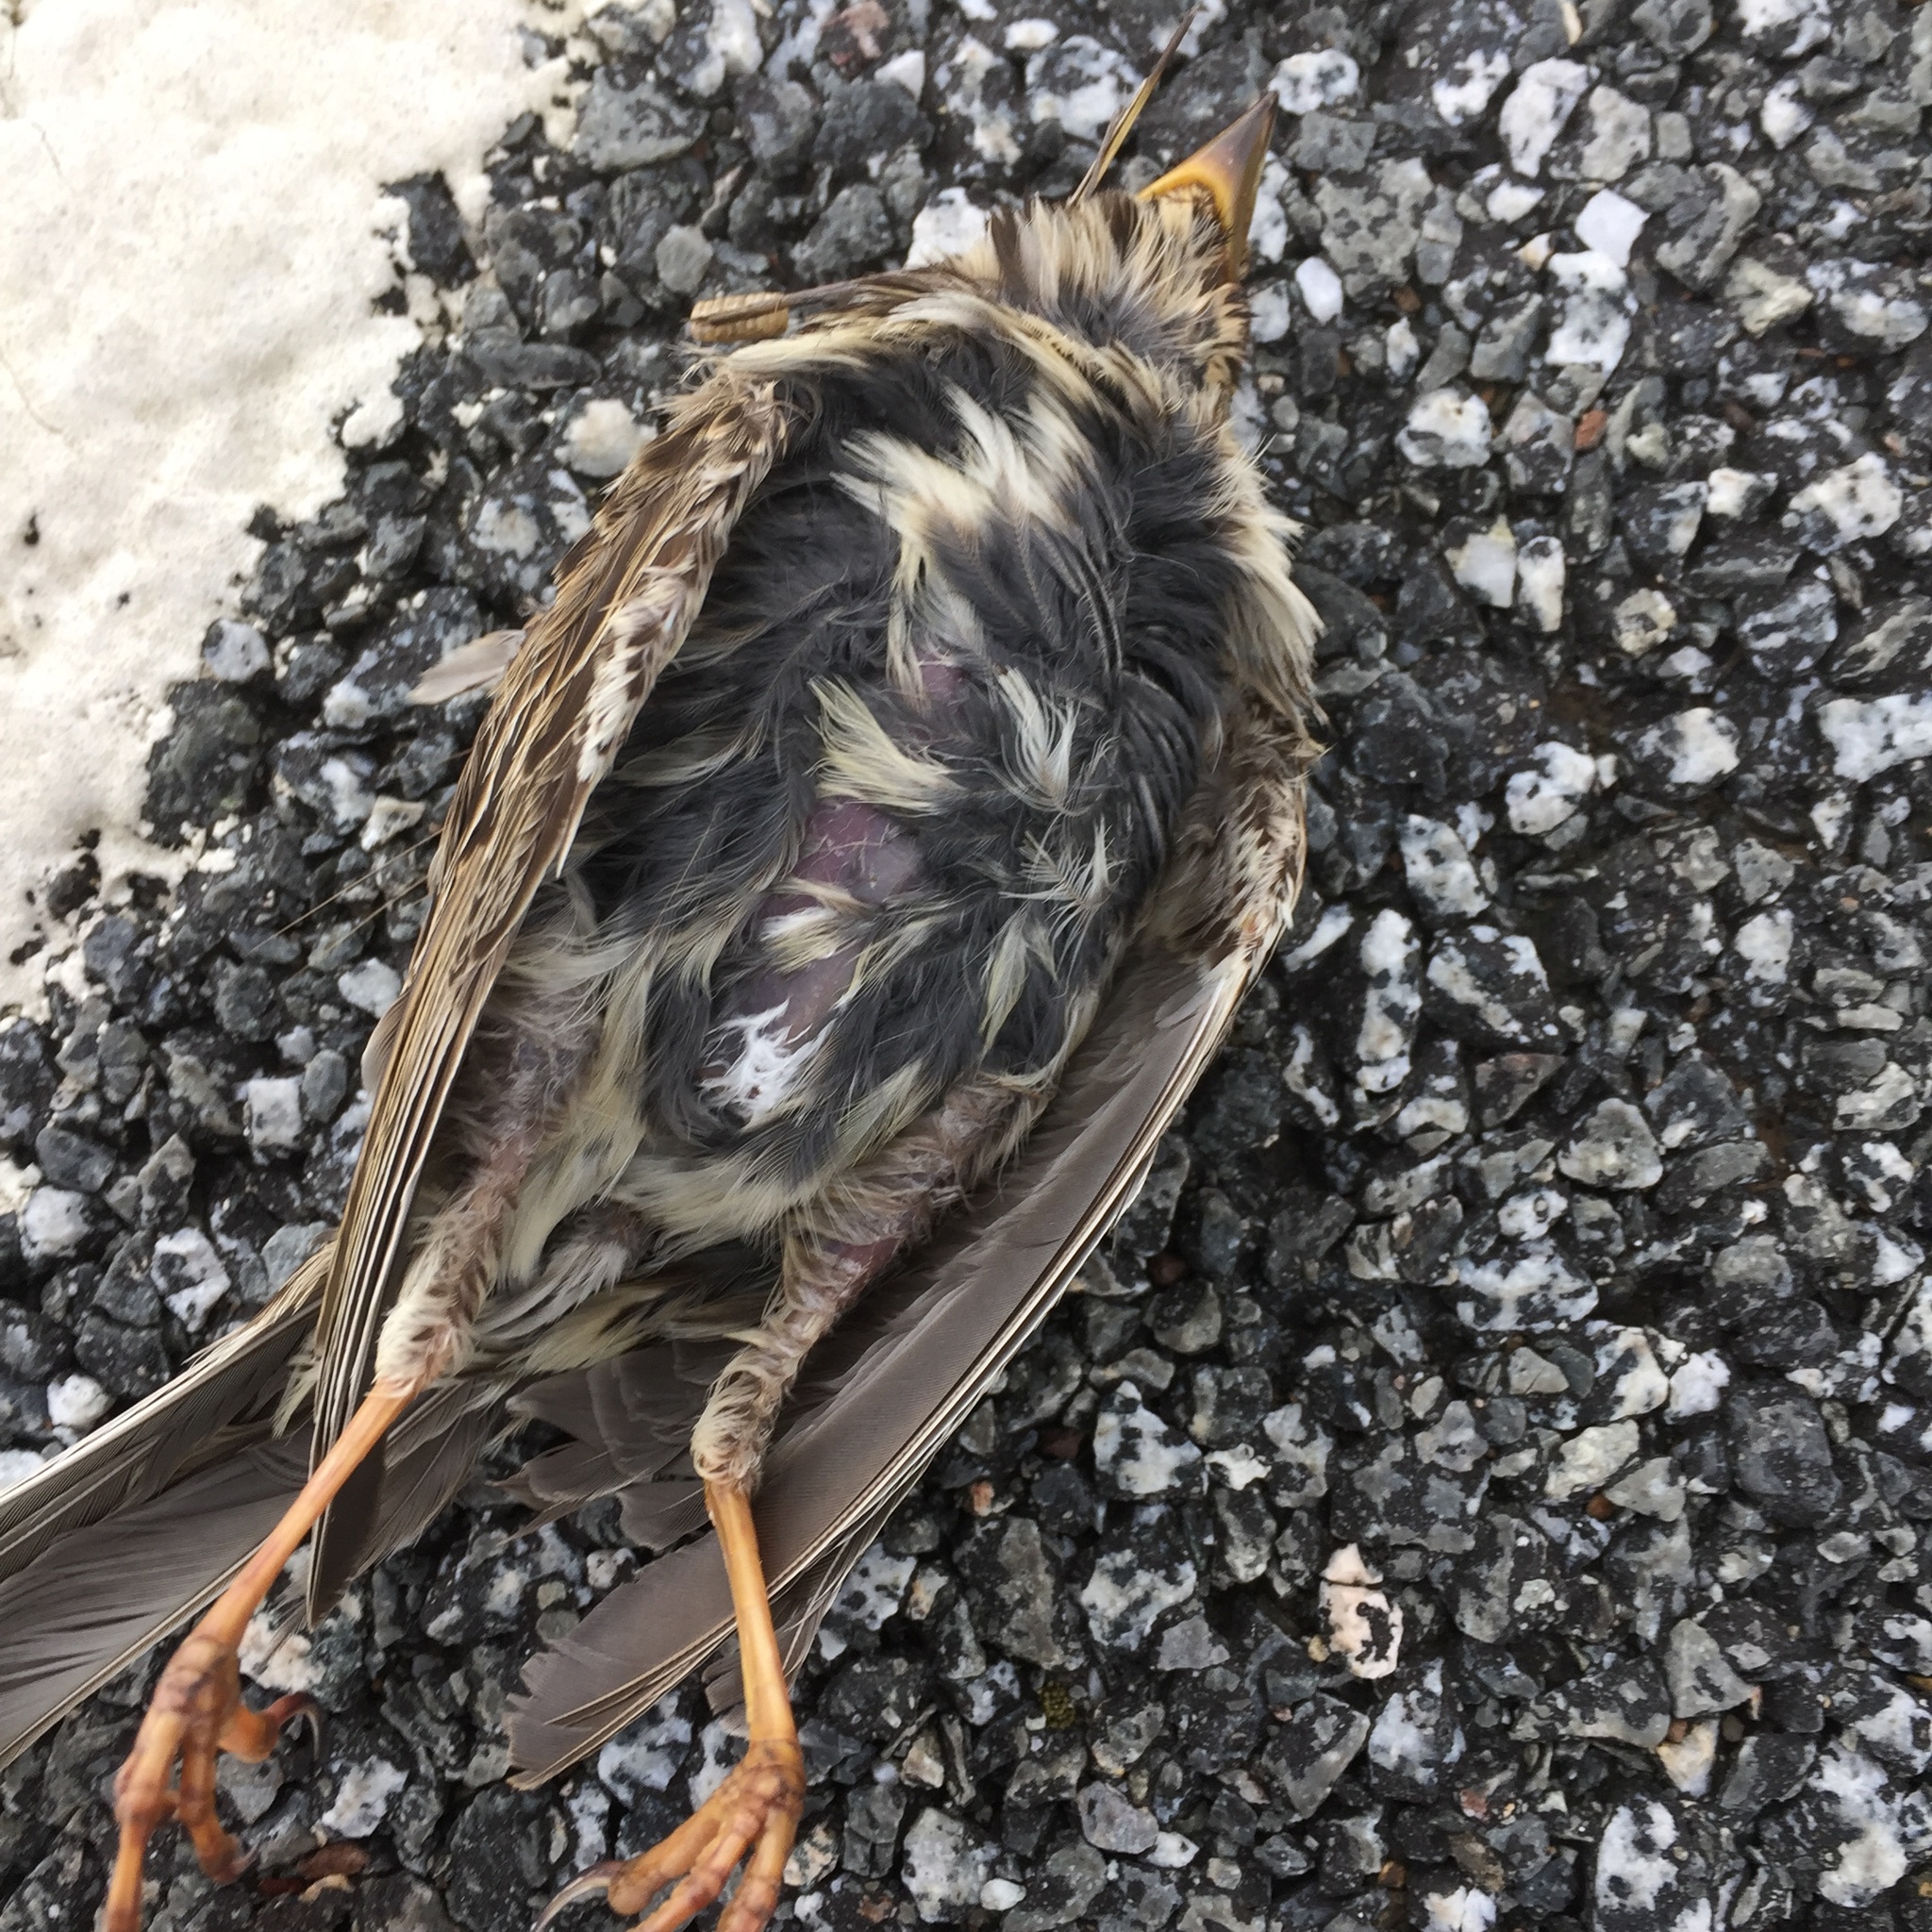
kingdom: Animalia
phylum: Chordata
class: Aves
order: Passeriformes
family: Emberizidae
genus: Emberiza
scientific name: Emberiza calandra
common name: Corn bunting
